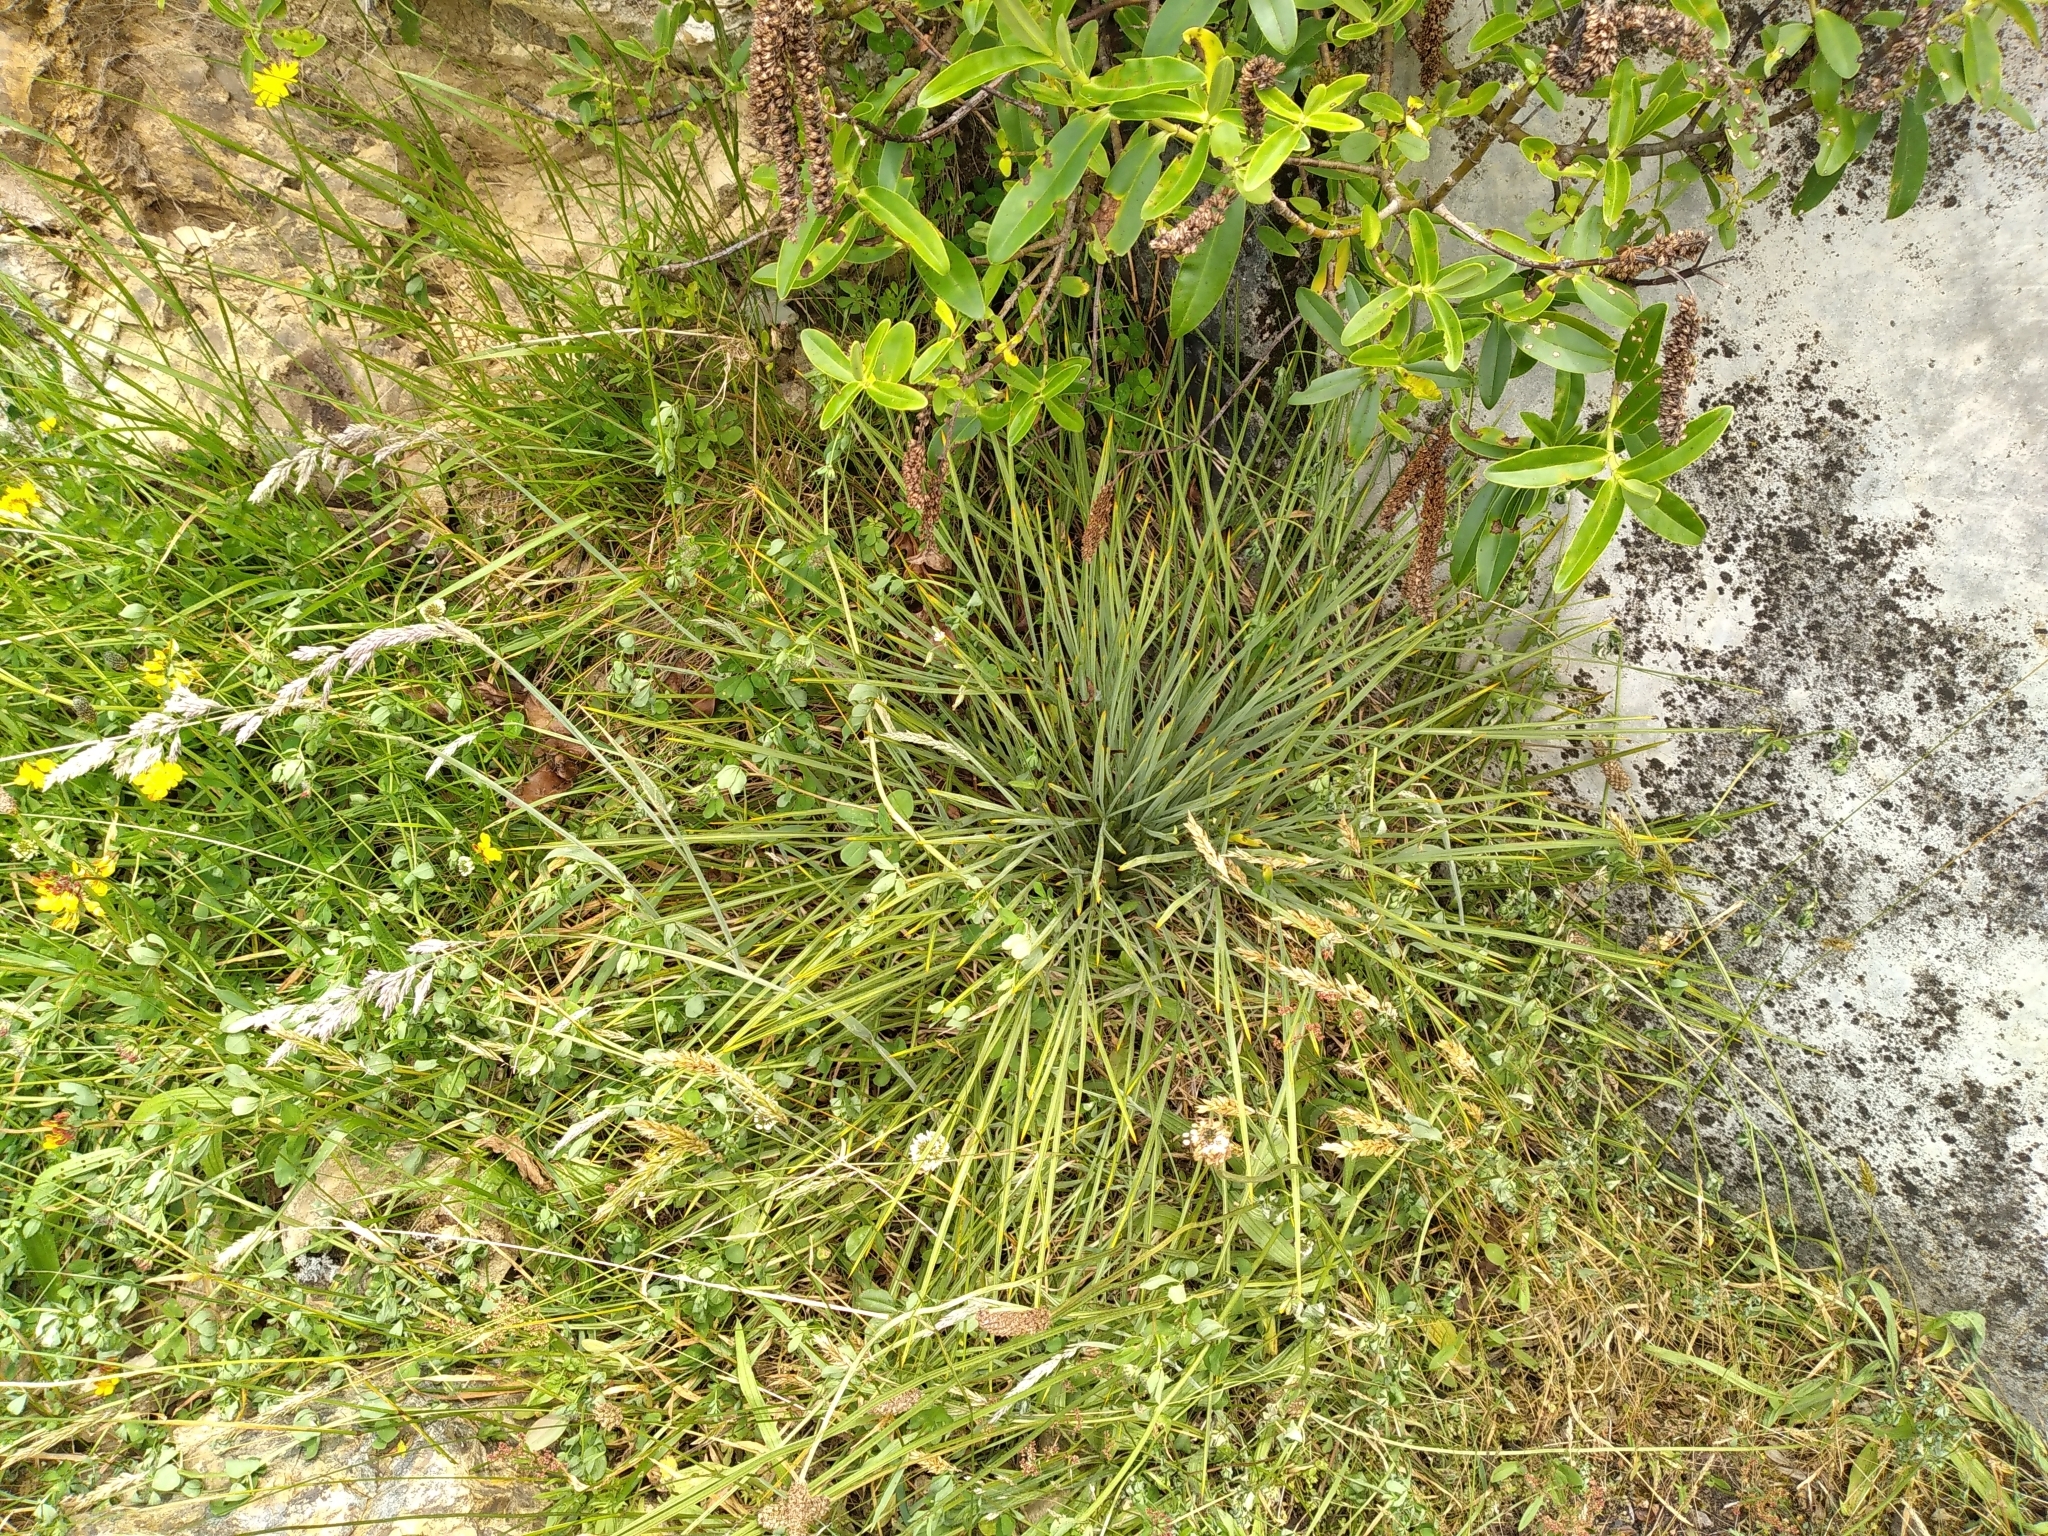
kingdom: Plantae
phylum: Tracheophyta
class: Magnoliopsida
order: Apiales
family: Apiaceae
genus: Aciphylla
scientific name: Aciphylla squarrosa
